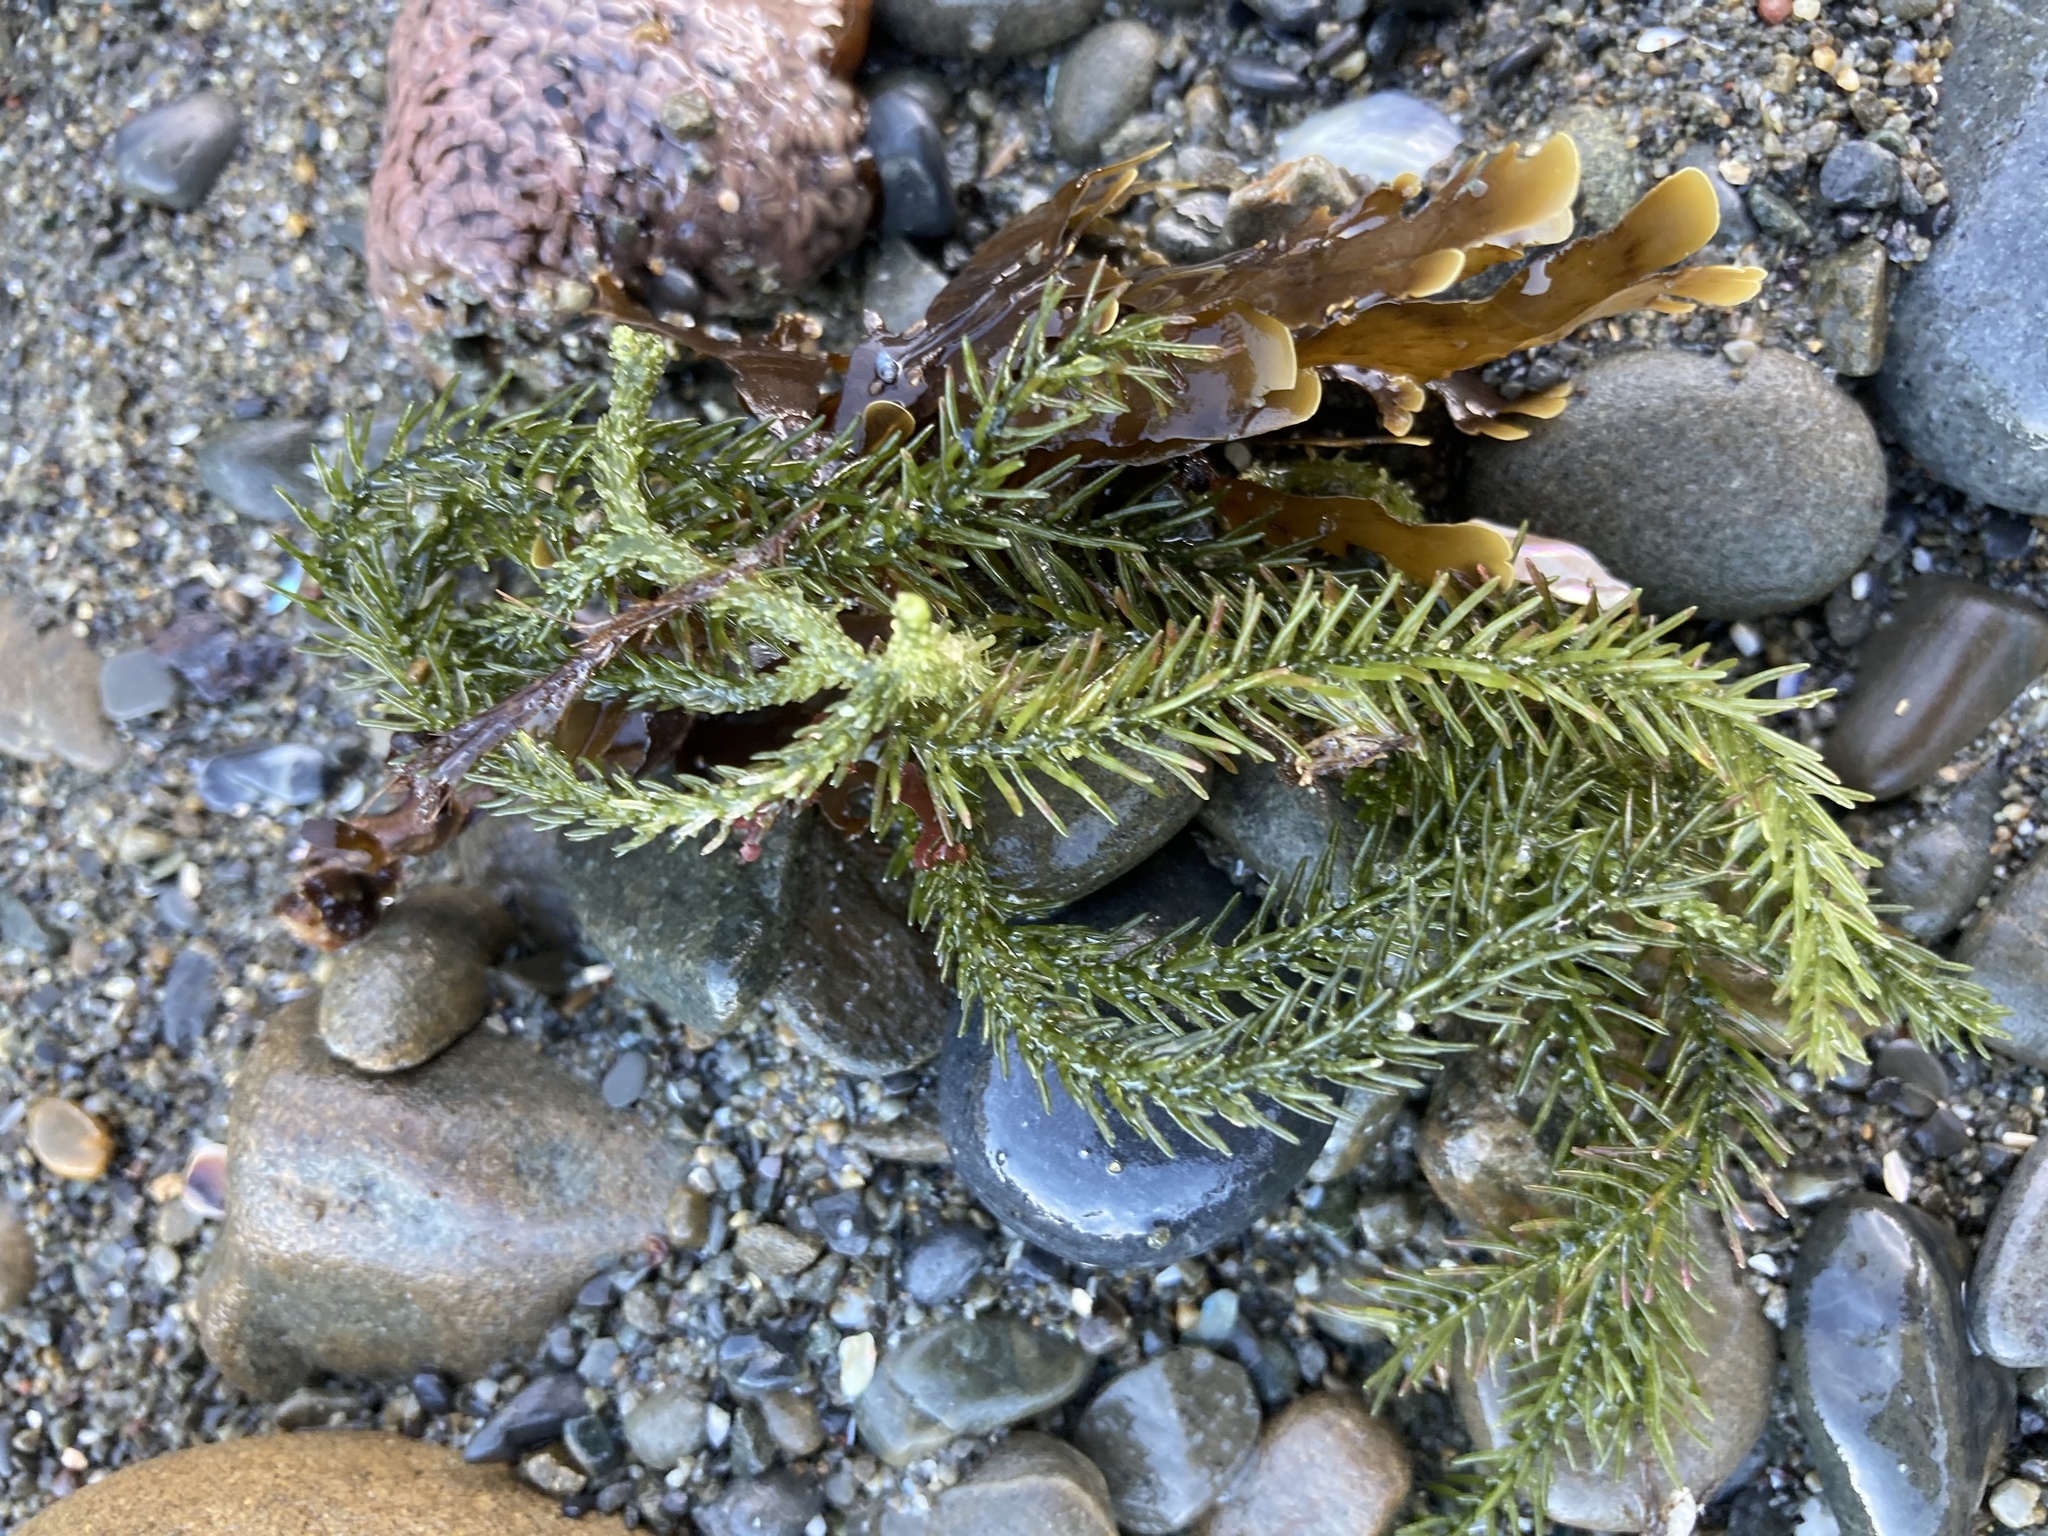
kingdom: Plantae
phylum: Chlorophyta
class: Ulvophyceae
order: Bryopsidales
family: Caulerpaceae
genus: Caulerpa
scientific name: Caulerpa brownii
